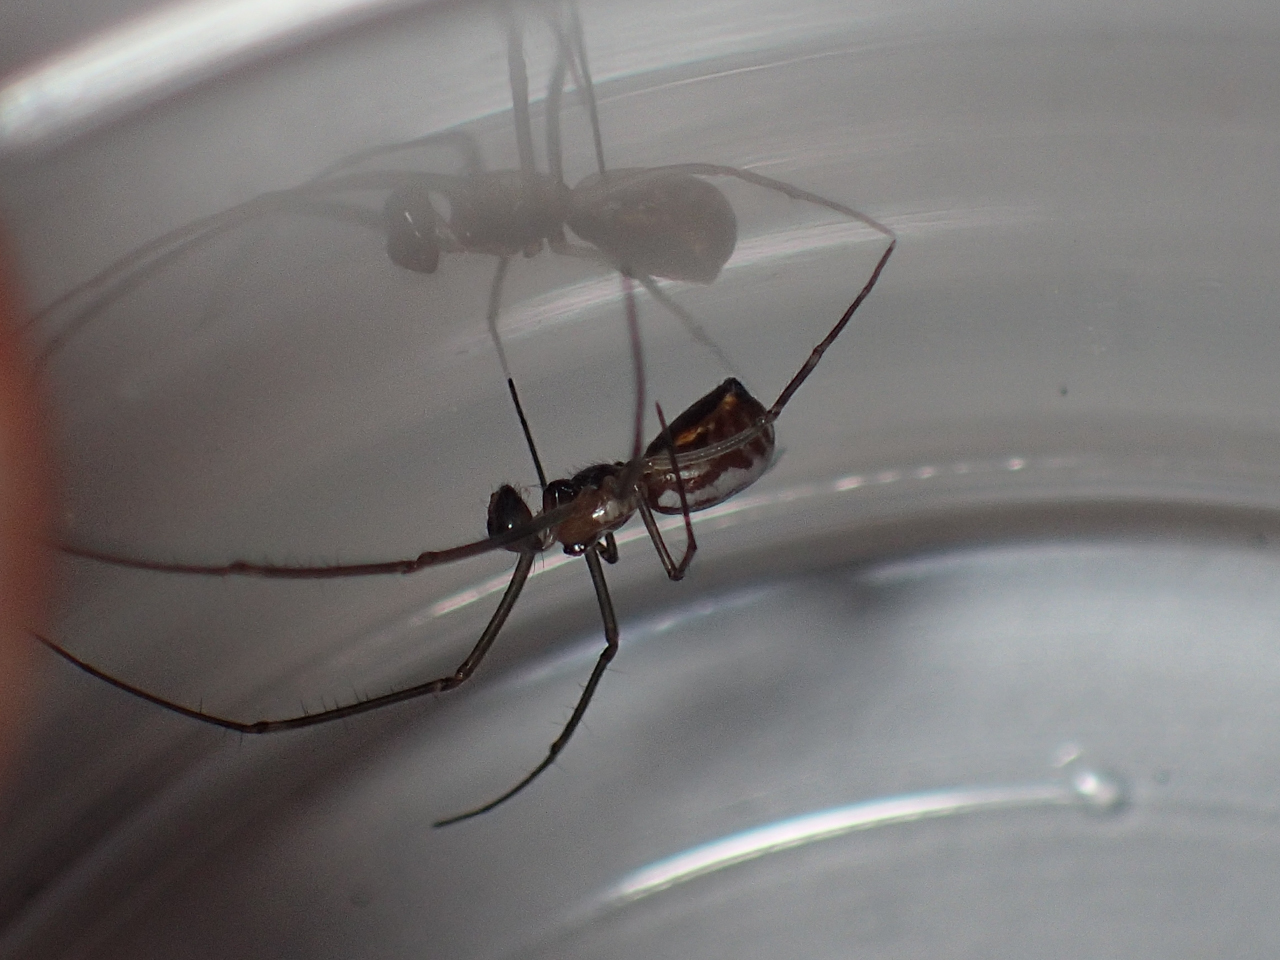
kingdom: Animalia
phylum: Arthropoda
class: Arachnida
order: Araneae
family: Linyphiidae
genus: Neriene
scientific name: Neriene radiata
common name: Filmy dome spider
